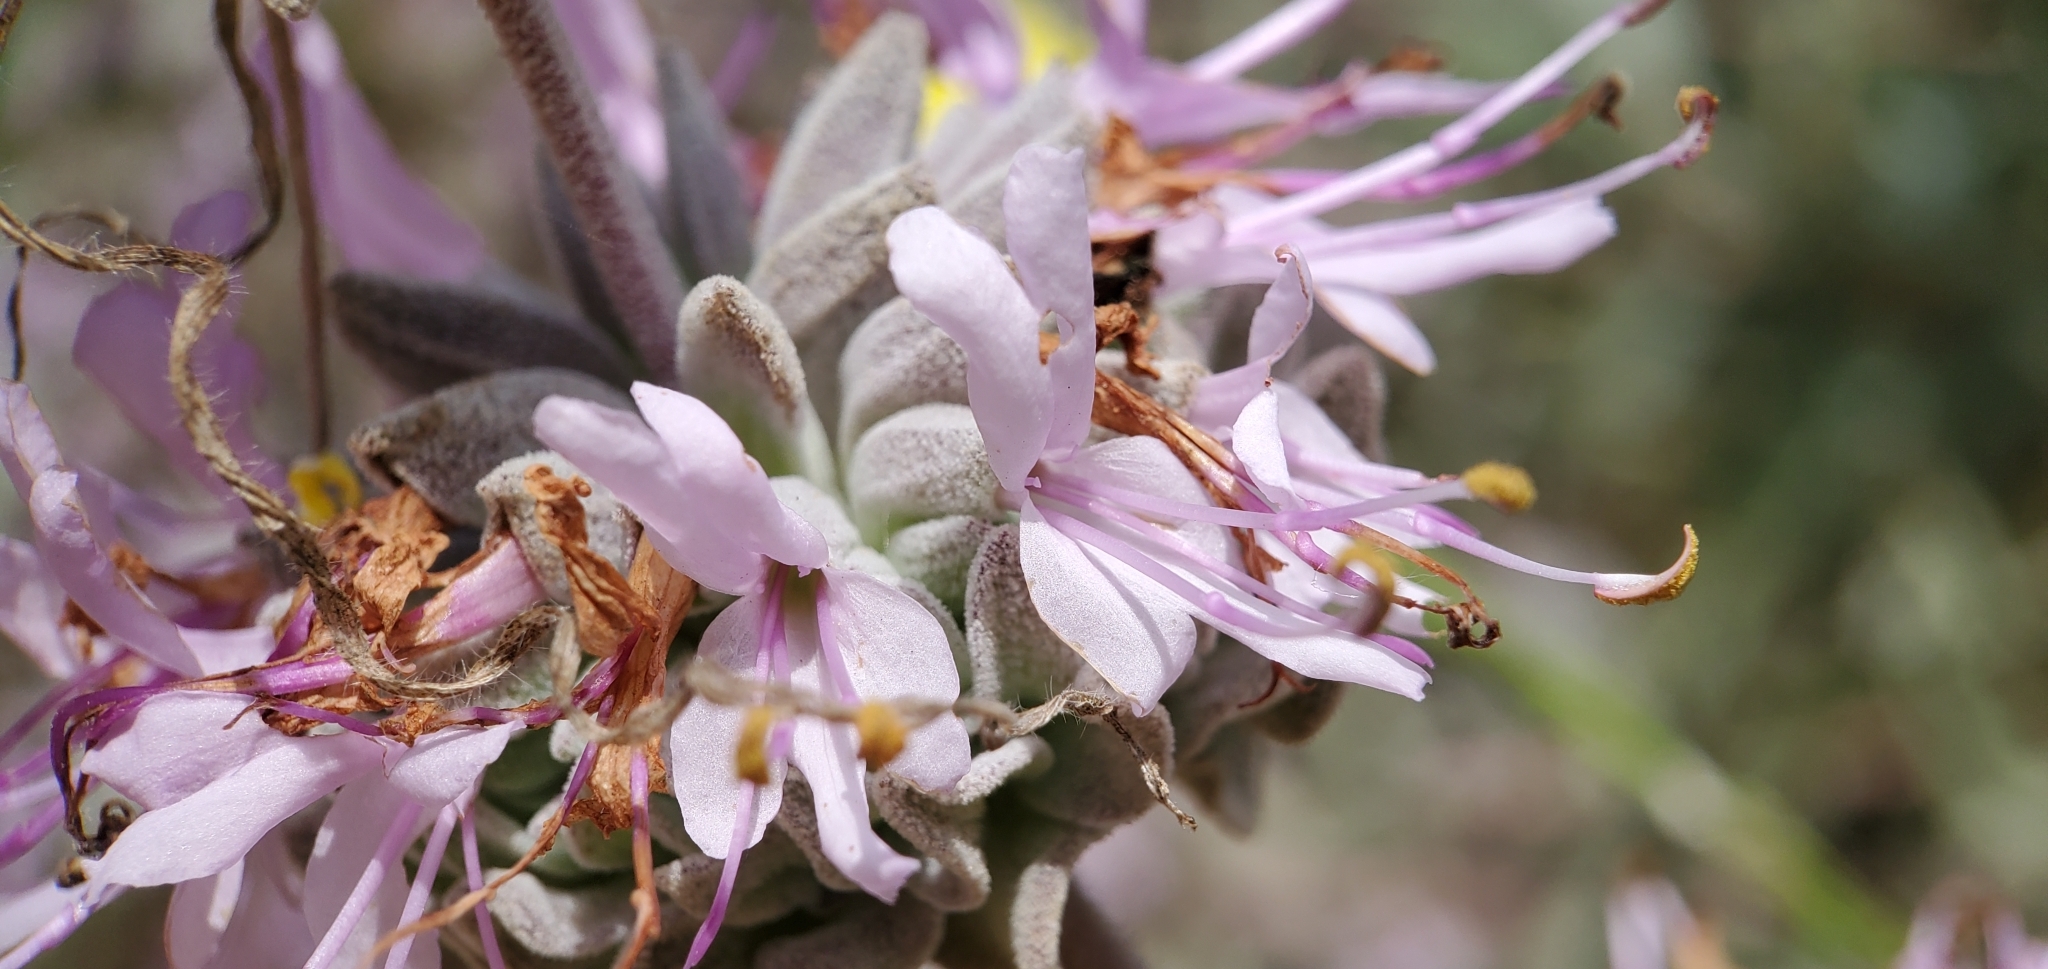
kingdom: Plantae
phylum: Tracheophyta
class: Magnoliopsida
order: Lamiales
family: Lamiaceae
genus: Salvia
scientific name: Salvia leucophylla
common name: Purple sage
